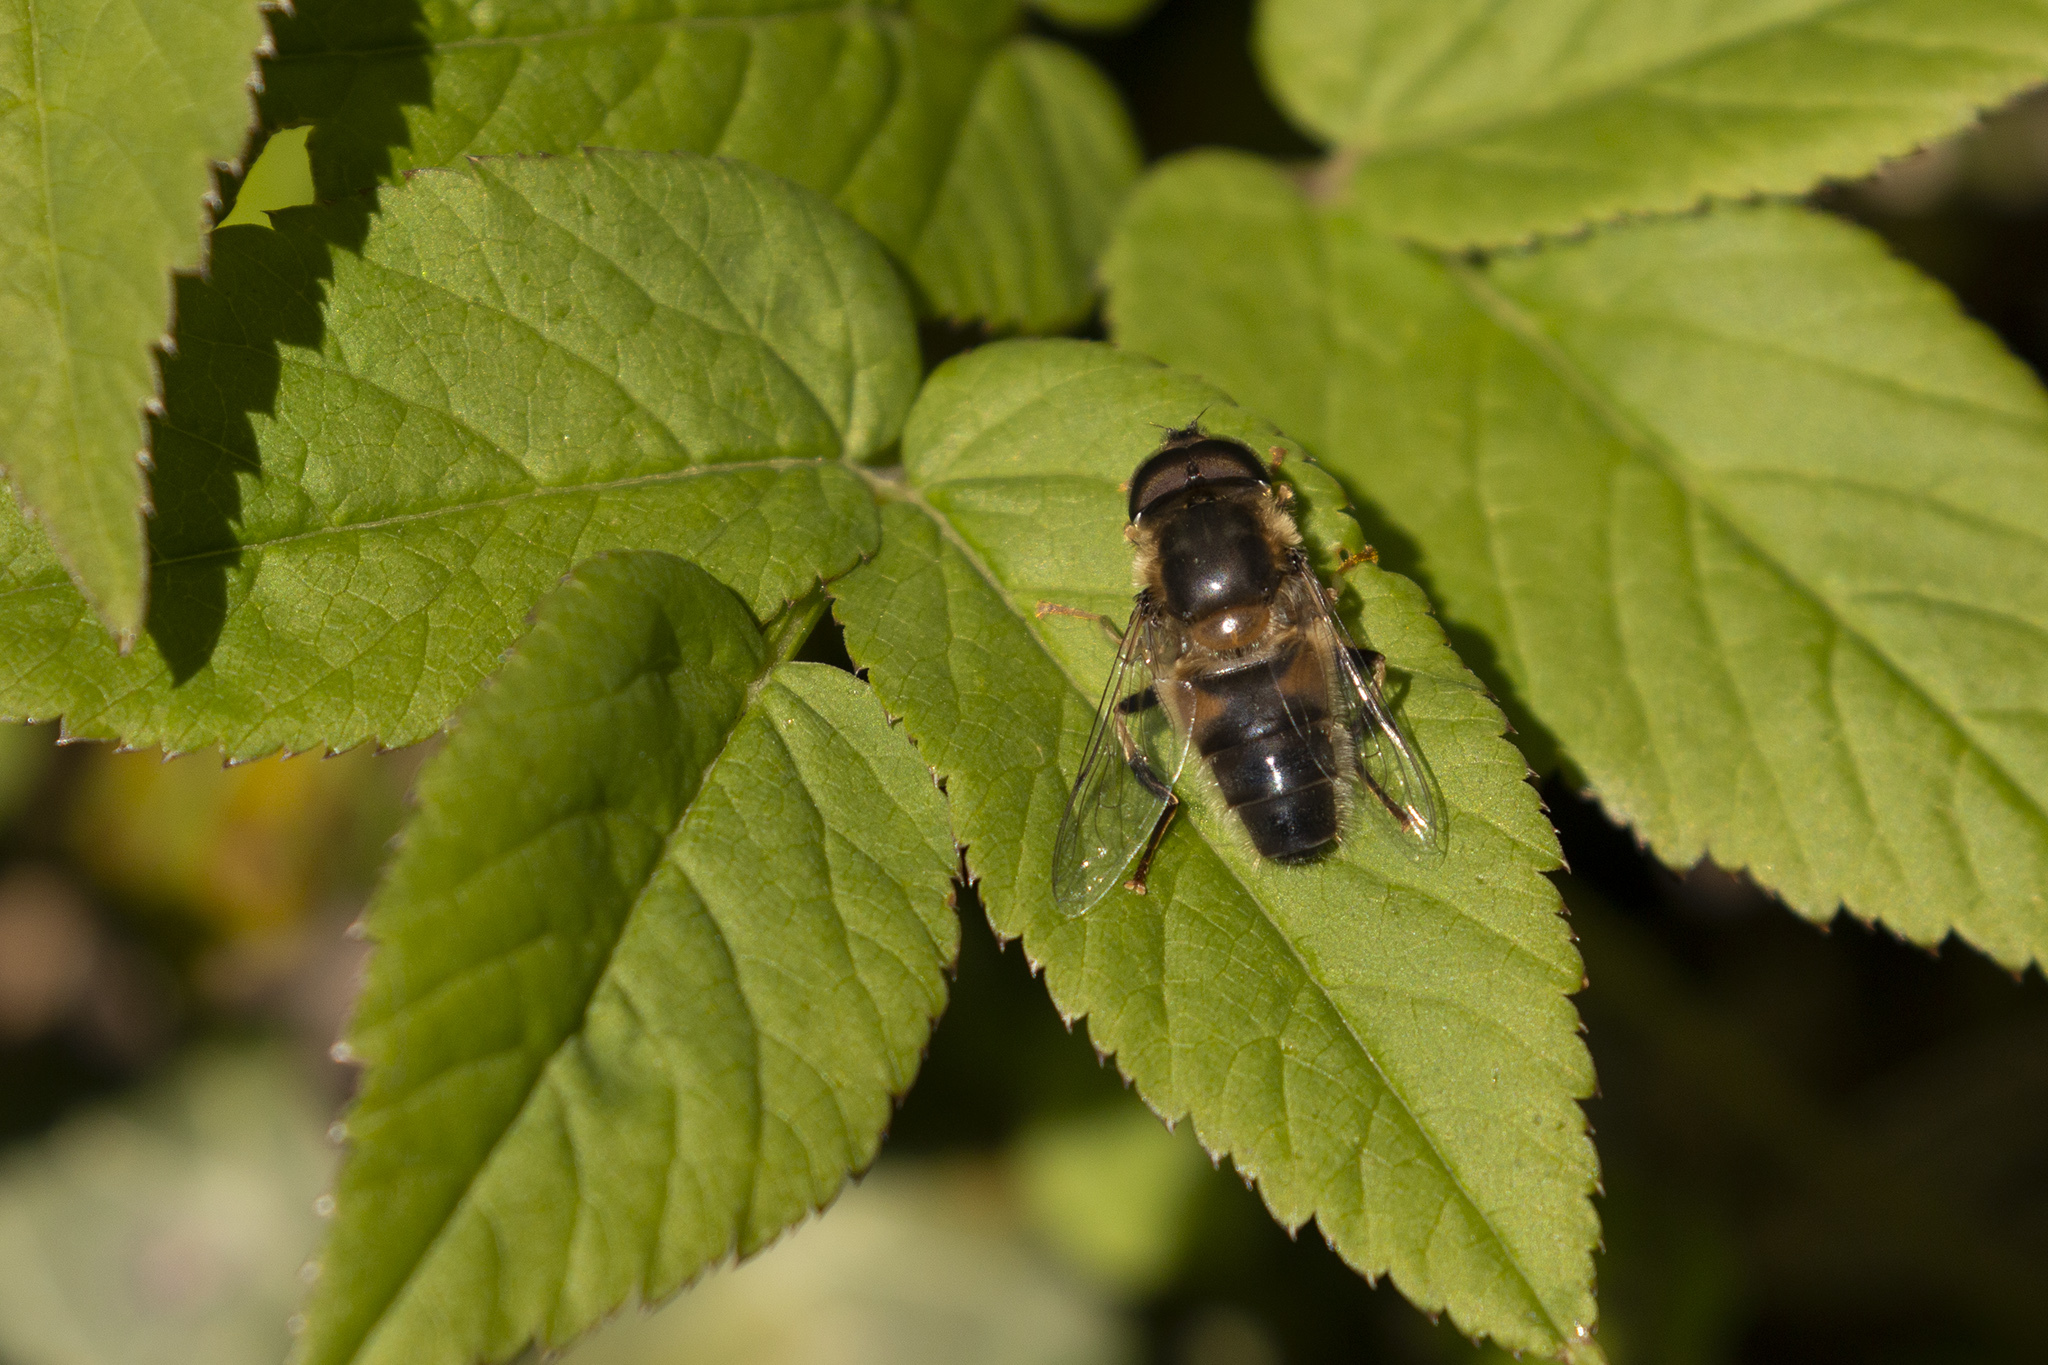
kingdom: Animalia
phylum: Arthropoda
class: Insecta
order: Diptera
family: Syrphidae
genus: Eristalis
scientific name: Eristalis pertinax
